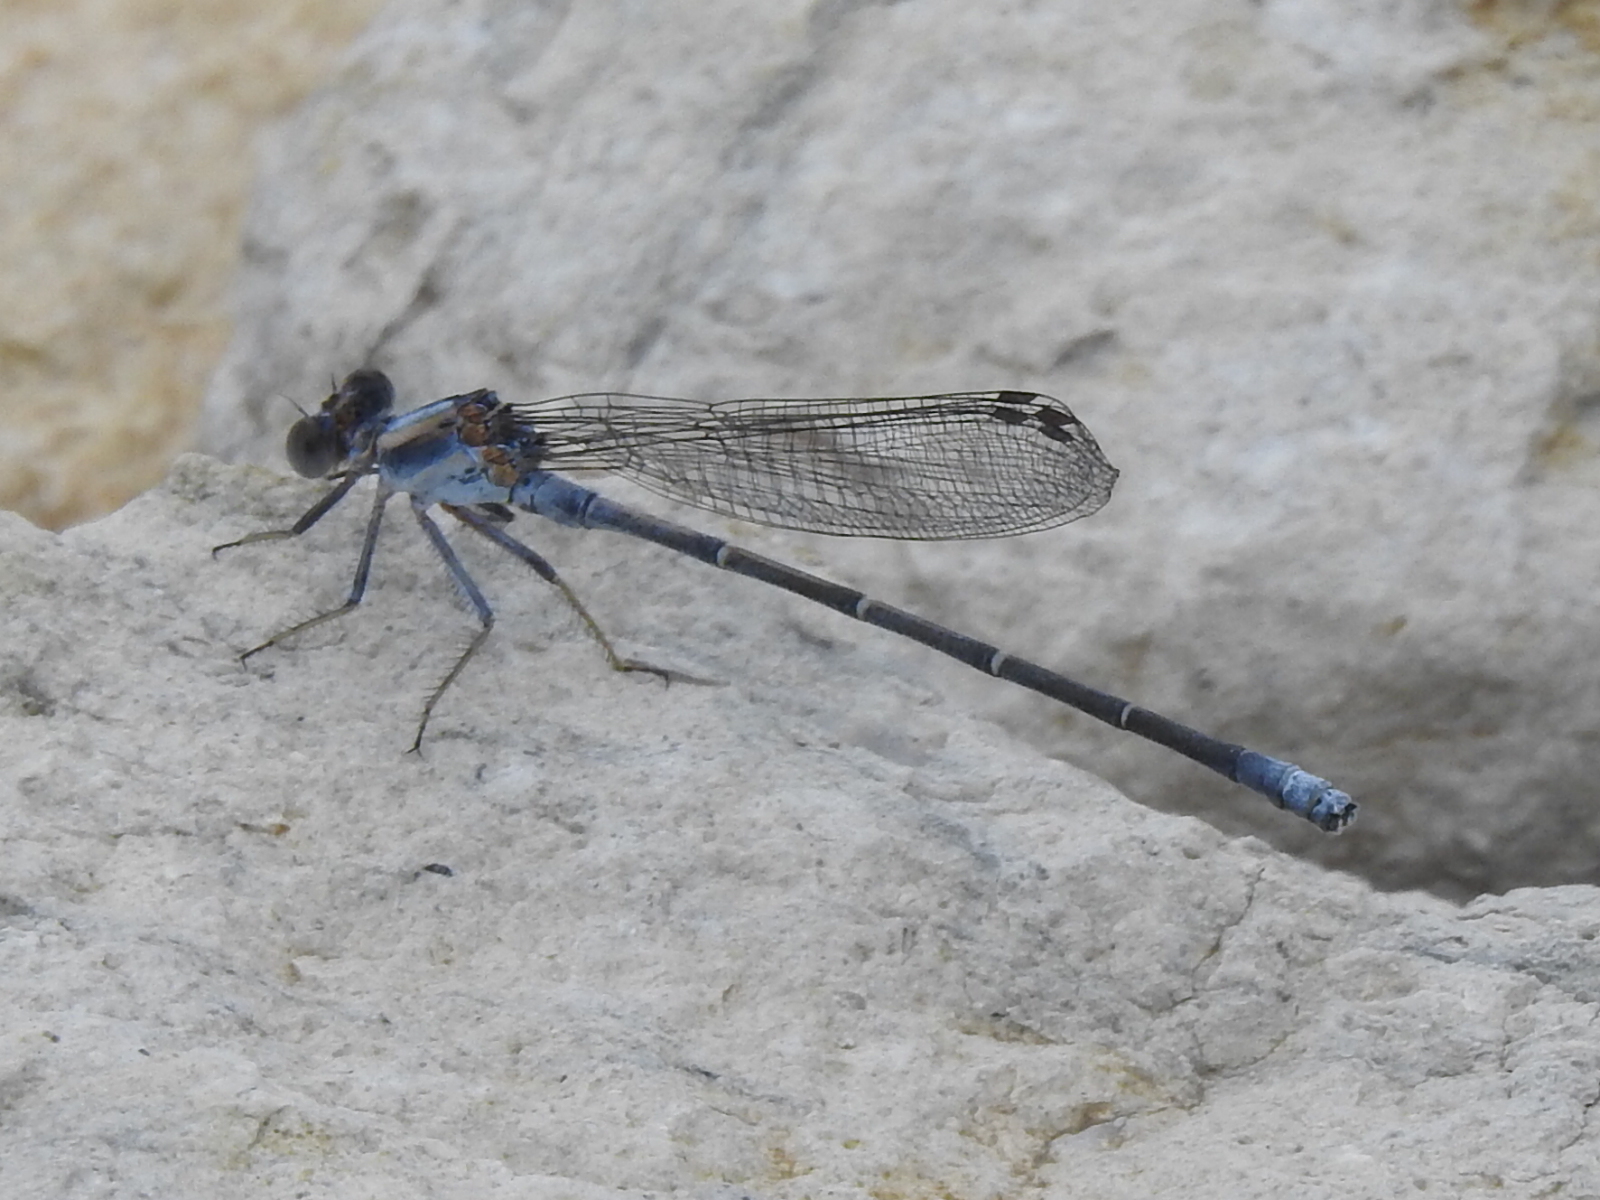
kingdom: Animalia
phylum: Arthropoda
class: Insecta
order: Odonata
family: Coenagrionidae
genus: Argia
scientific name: Argia moesta
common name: Powdered dancer
